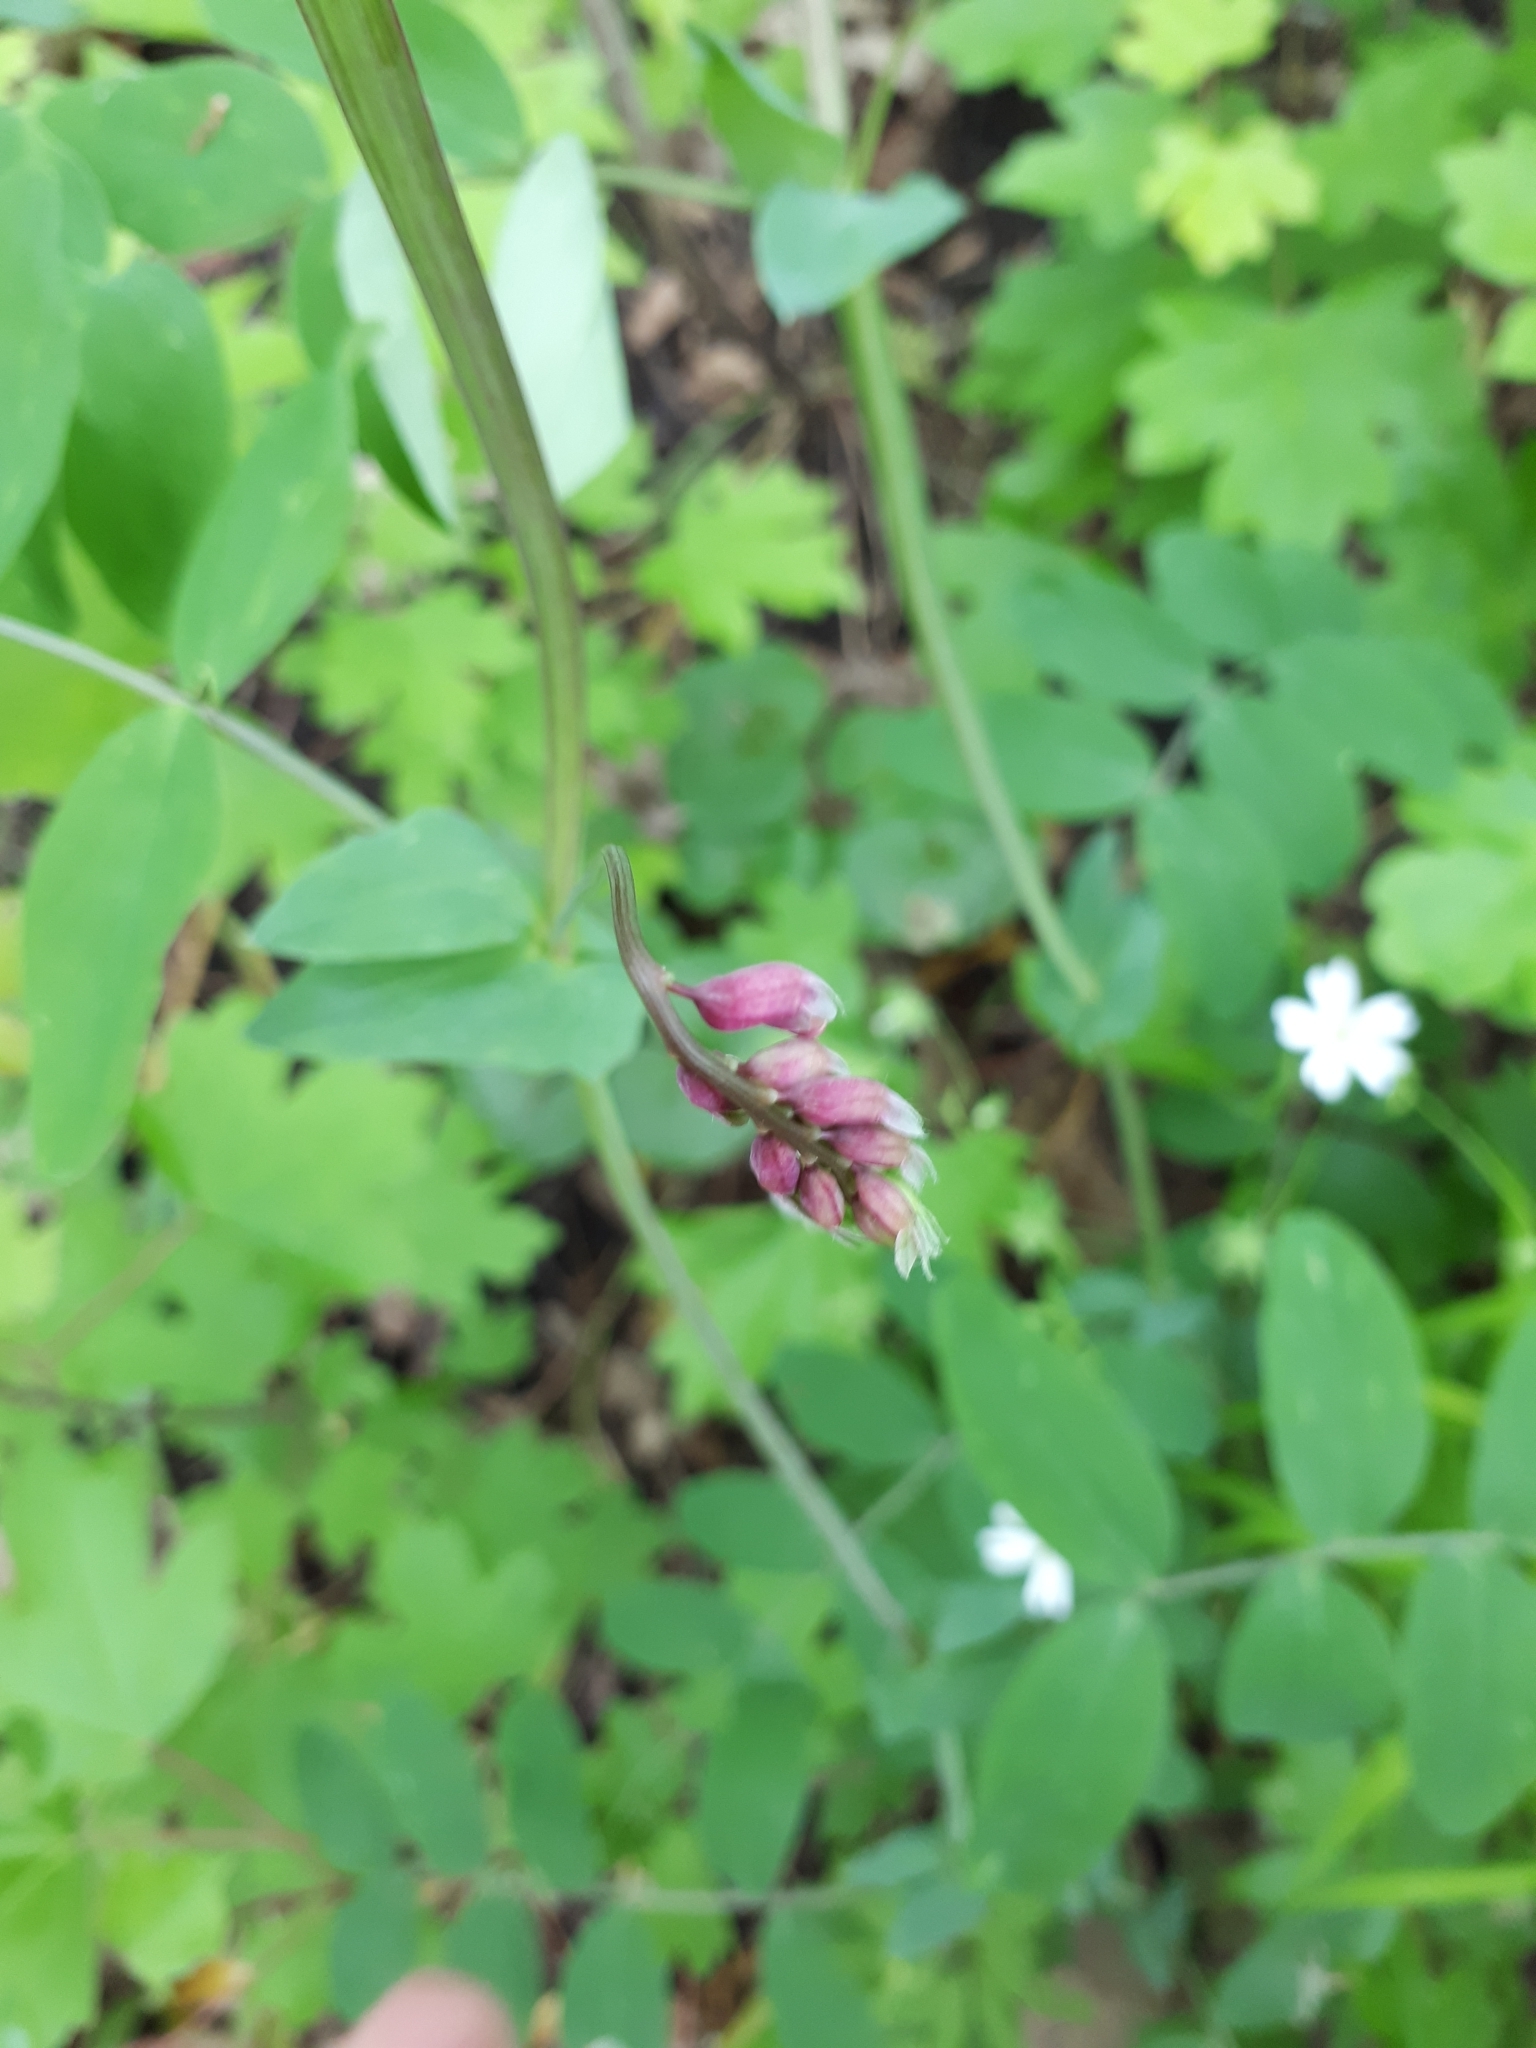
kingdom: Plantae
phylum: Tracheophyta
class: Magnoliopsida
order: Fabales
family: Fabaceae
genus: Lathyrus
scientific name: Lathyrus pisiformis
